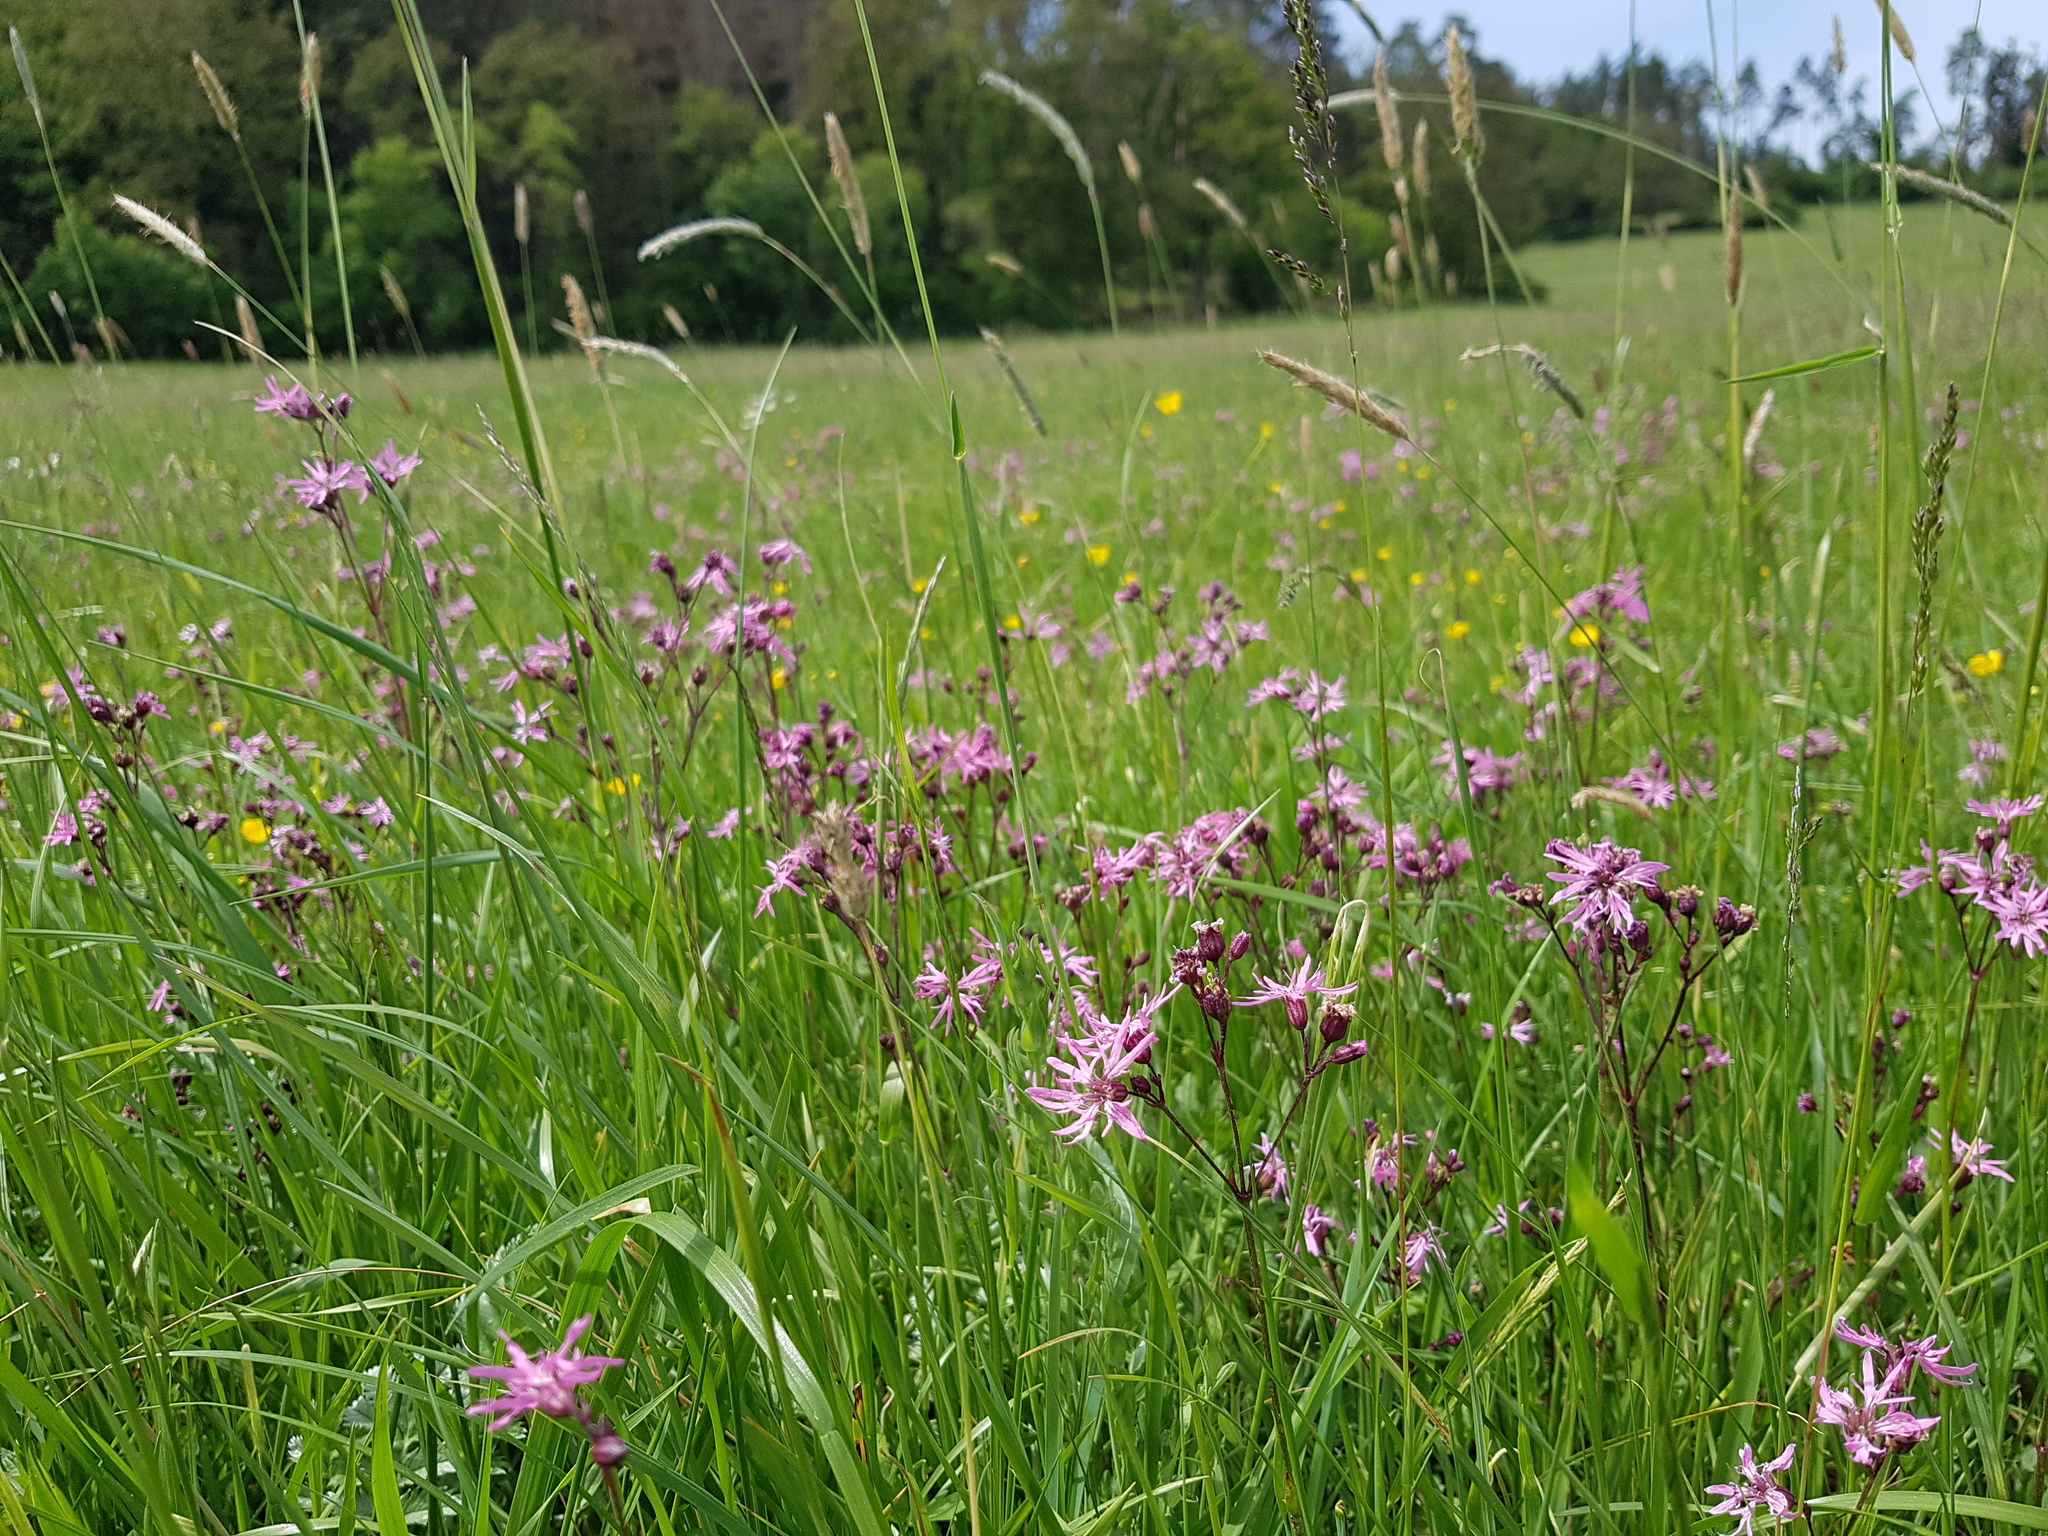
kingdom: Plantae
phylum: Tracheophyta
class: Magnoliopsida
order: Caryophyllales
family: Caryophyllaceae
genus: Silene
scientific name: Silene flos-cuculi
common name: Ragged-robin
